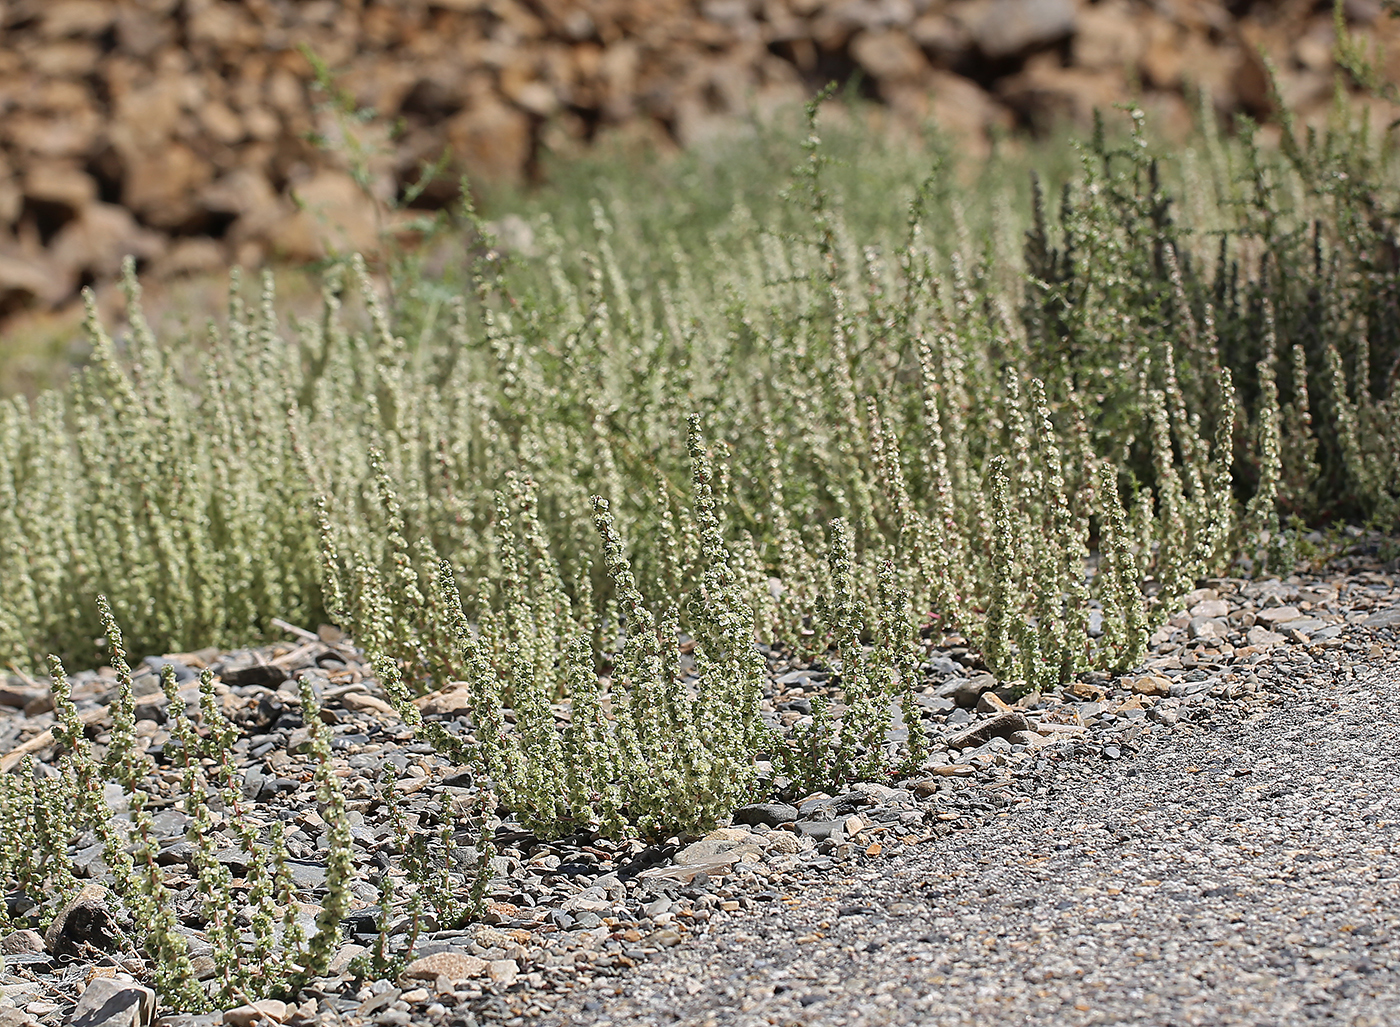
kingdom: Plantae
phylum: Tracheophyta
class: Magnoliopsida
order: Caryophyllales
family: Amaranthaceae
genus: Halogeton
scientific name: Halogeton glomeratus
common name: Saltlover
